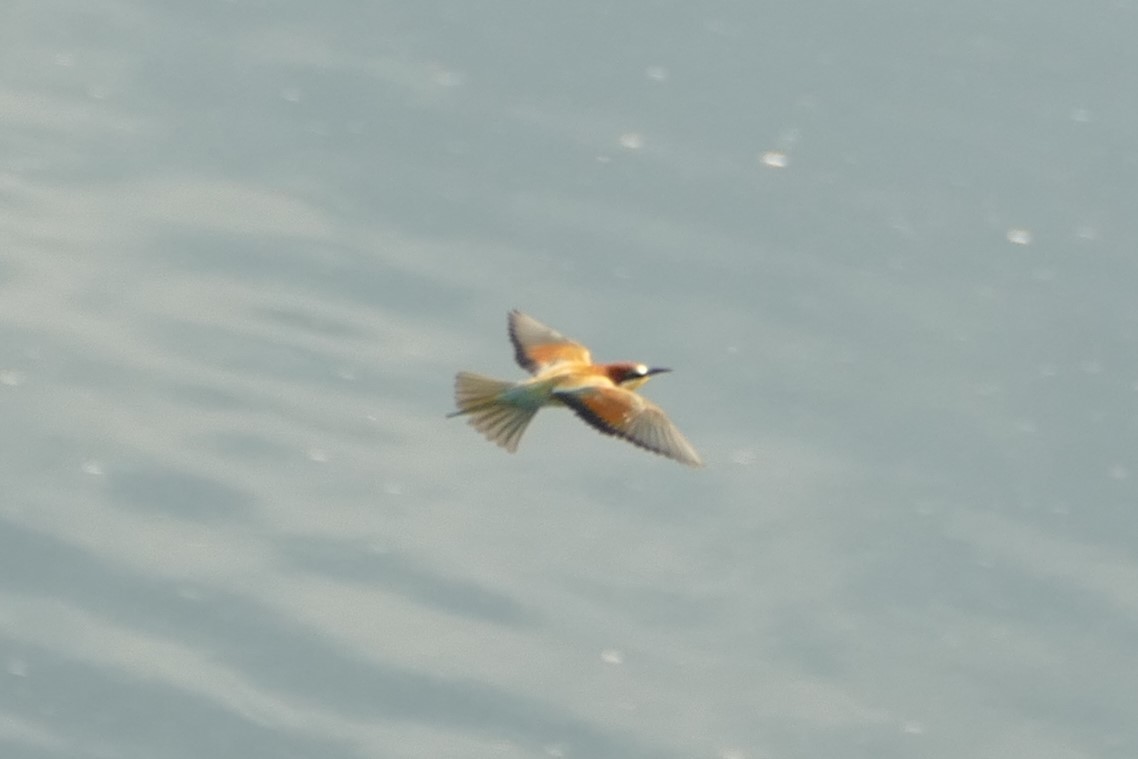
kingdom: Animalia
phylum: Chordata
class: Aves
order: Coraciiformes
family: Meropidae
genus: Merops
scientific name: Merops apiaster
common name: European bee-eater
